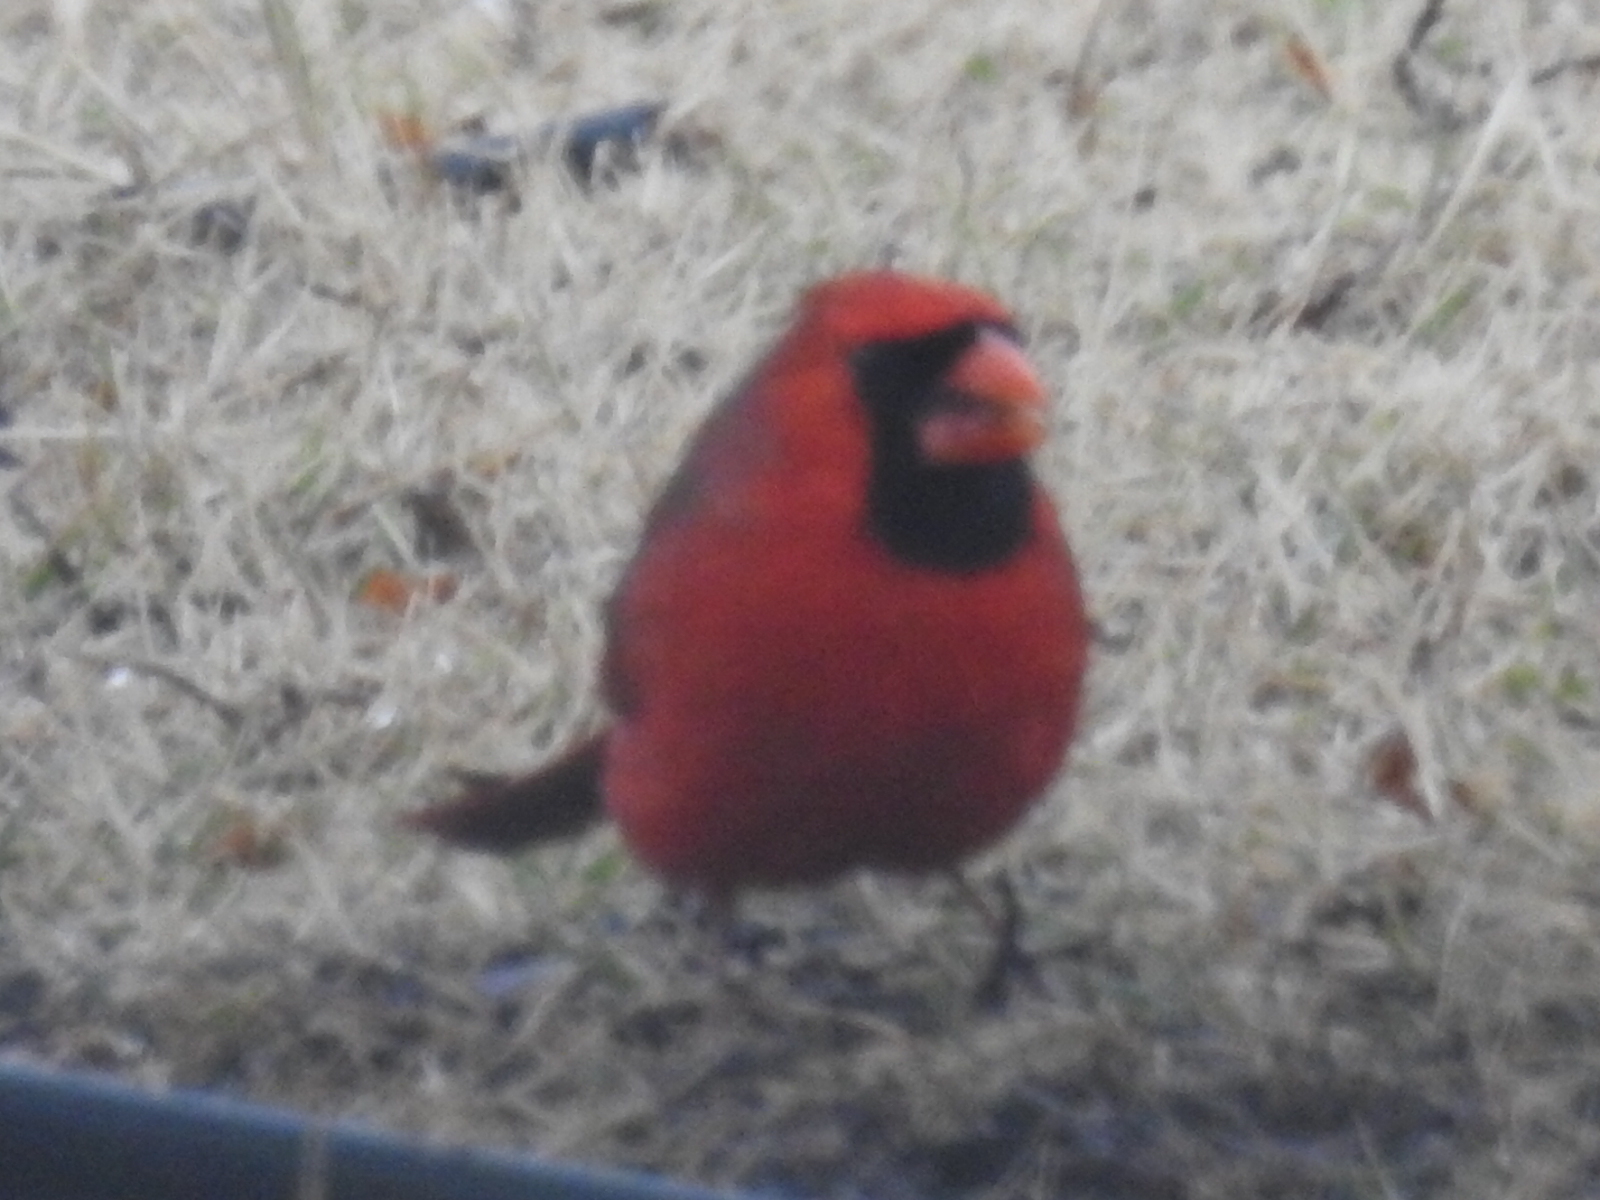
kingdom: Animalia
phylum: Chordata
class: Aves
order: Passeriformes
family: Cardinalidae
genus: Cardinalis
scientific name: Cardinalis cardinalis
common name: Northern cardinal
